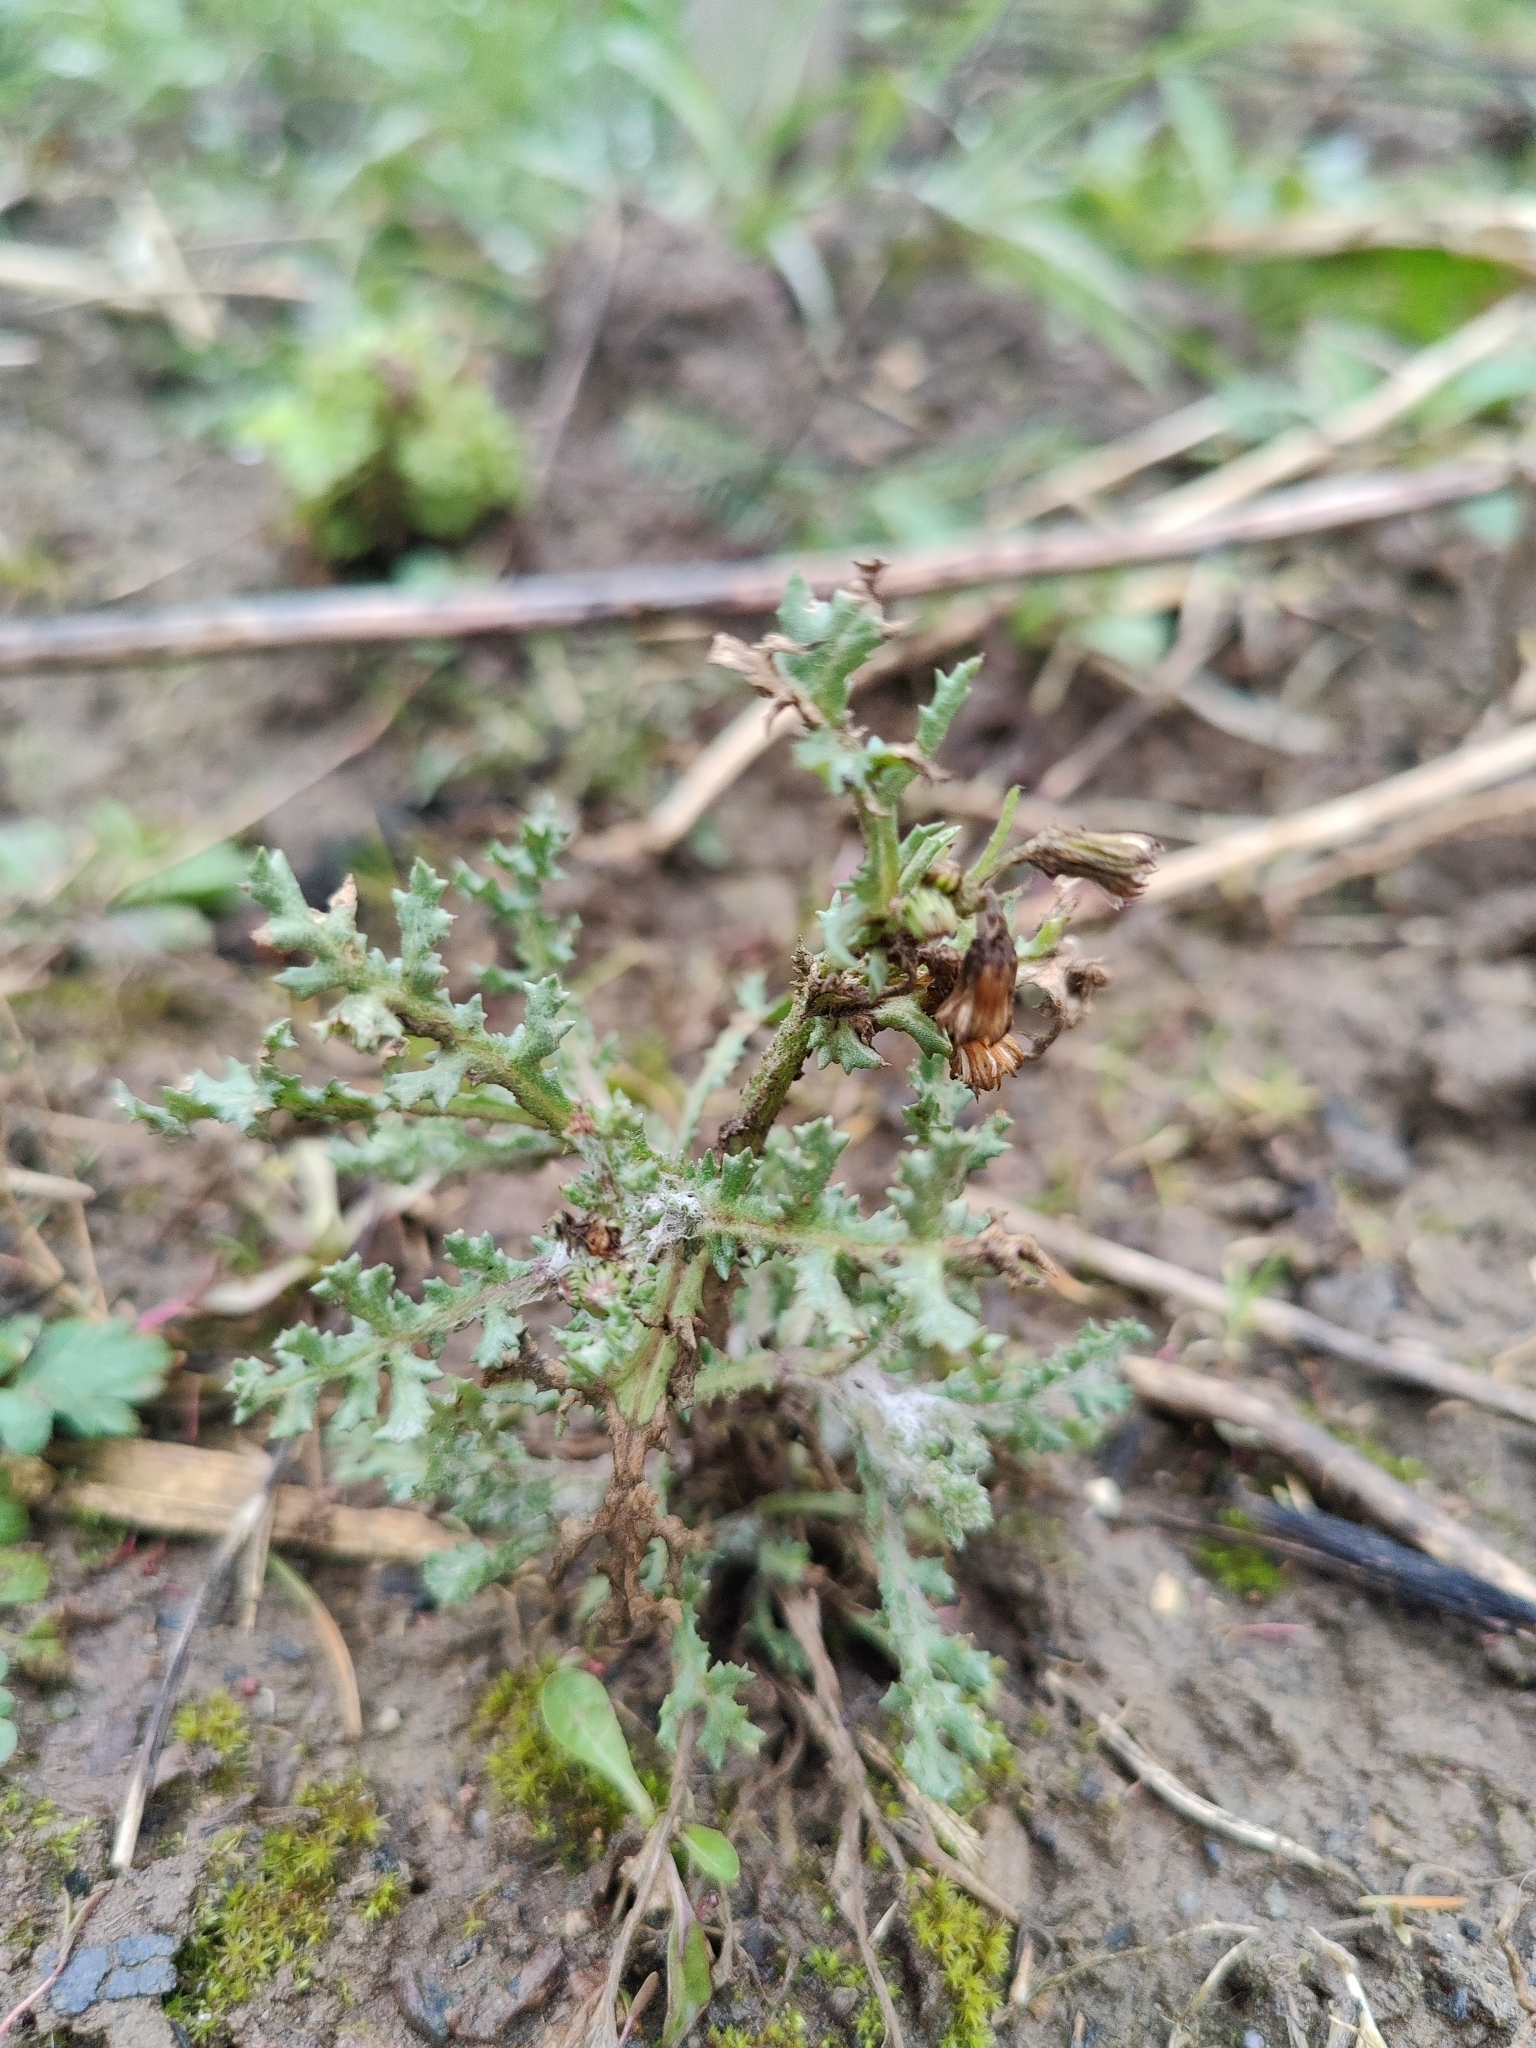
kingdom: Plantae
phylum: Tracheophyta
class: Magnoliopsida
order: Asterales
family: Asteraceae
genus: Senecio
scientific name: Senecio vulgaris
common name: Old-man-in-the-spring
